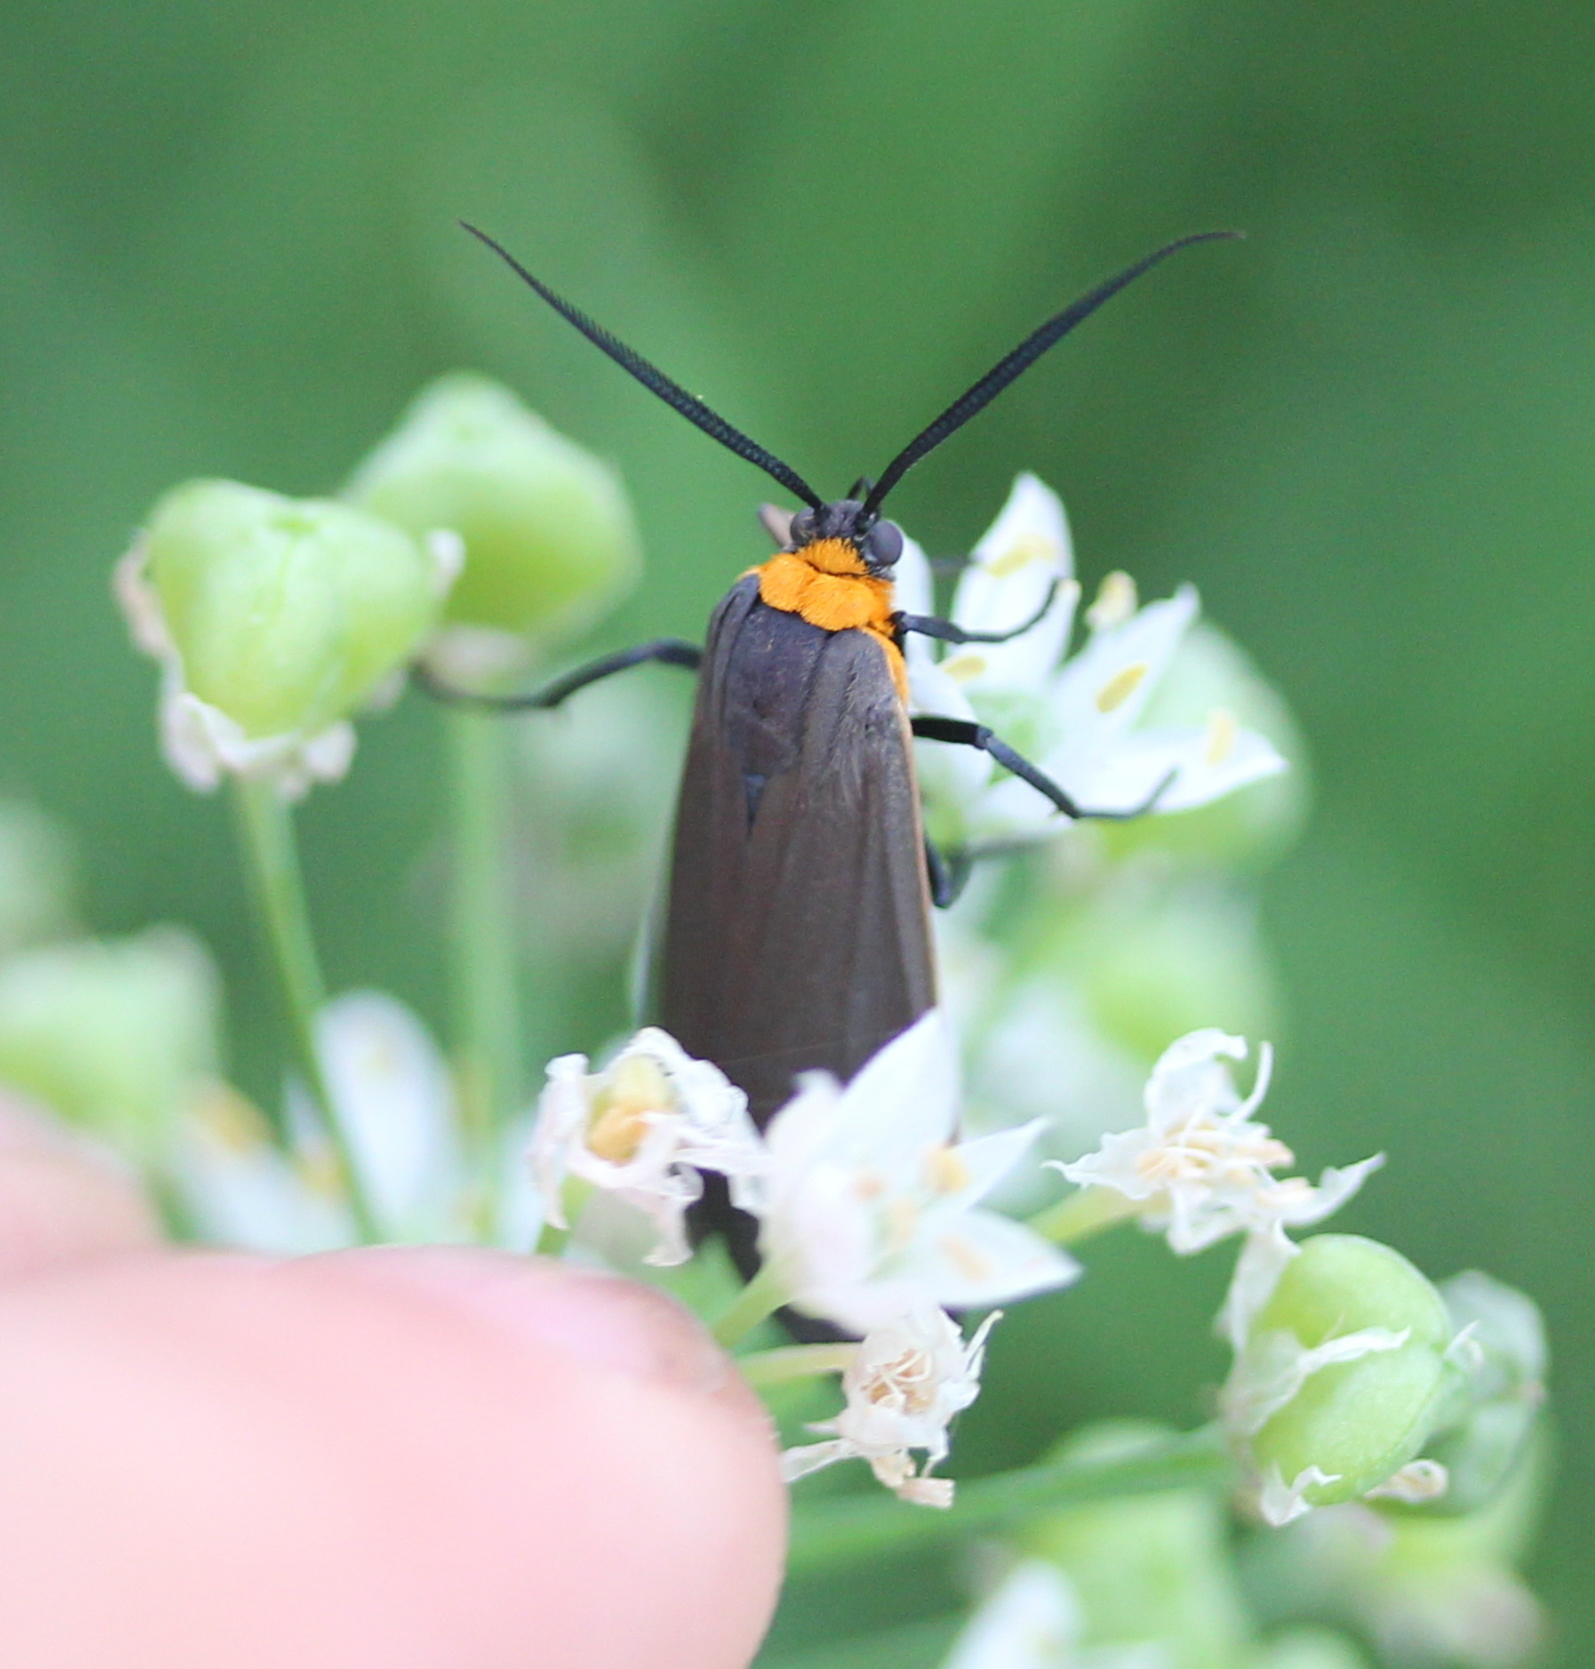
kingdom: Animalia
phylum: Arthropoda
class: Insecta
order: Lepidoptera
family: Erebidae
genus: Cisseps
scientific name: Cisseps fulvicollis
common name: Yellow-collared scape moth
